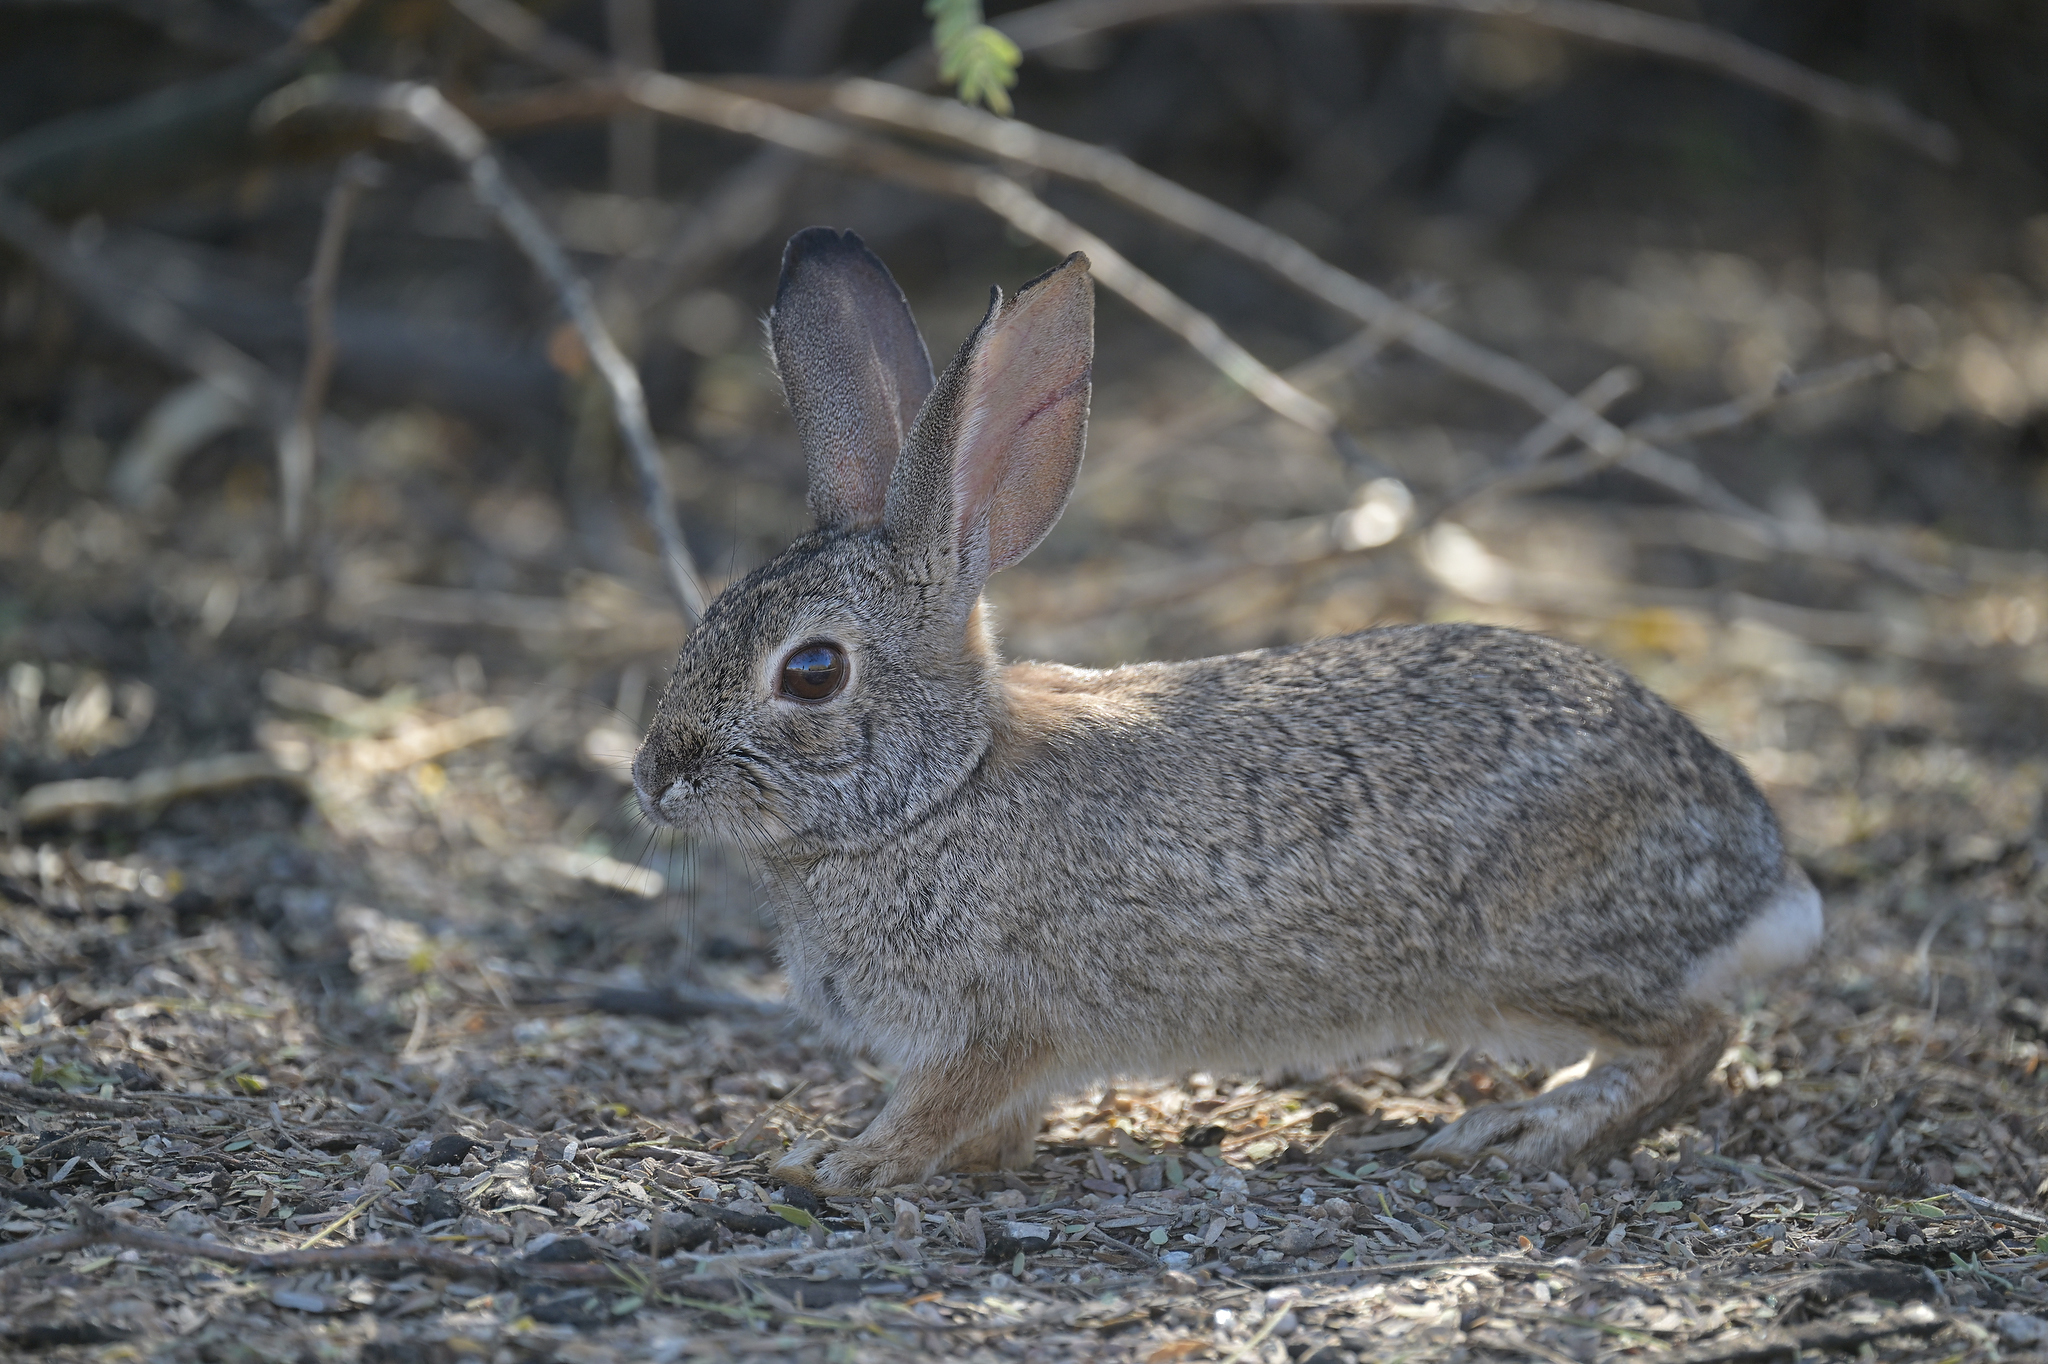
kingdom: Animalia
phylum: Chordata
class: Mammalia
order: Lagomorpha
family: Leporidae
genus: Sylvilagus
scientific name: Sylvilagus audubonii
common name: Desert cottontail
